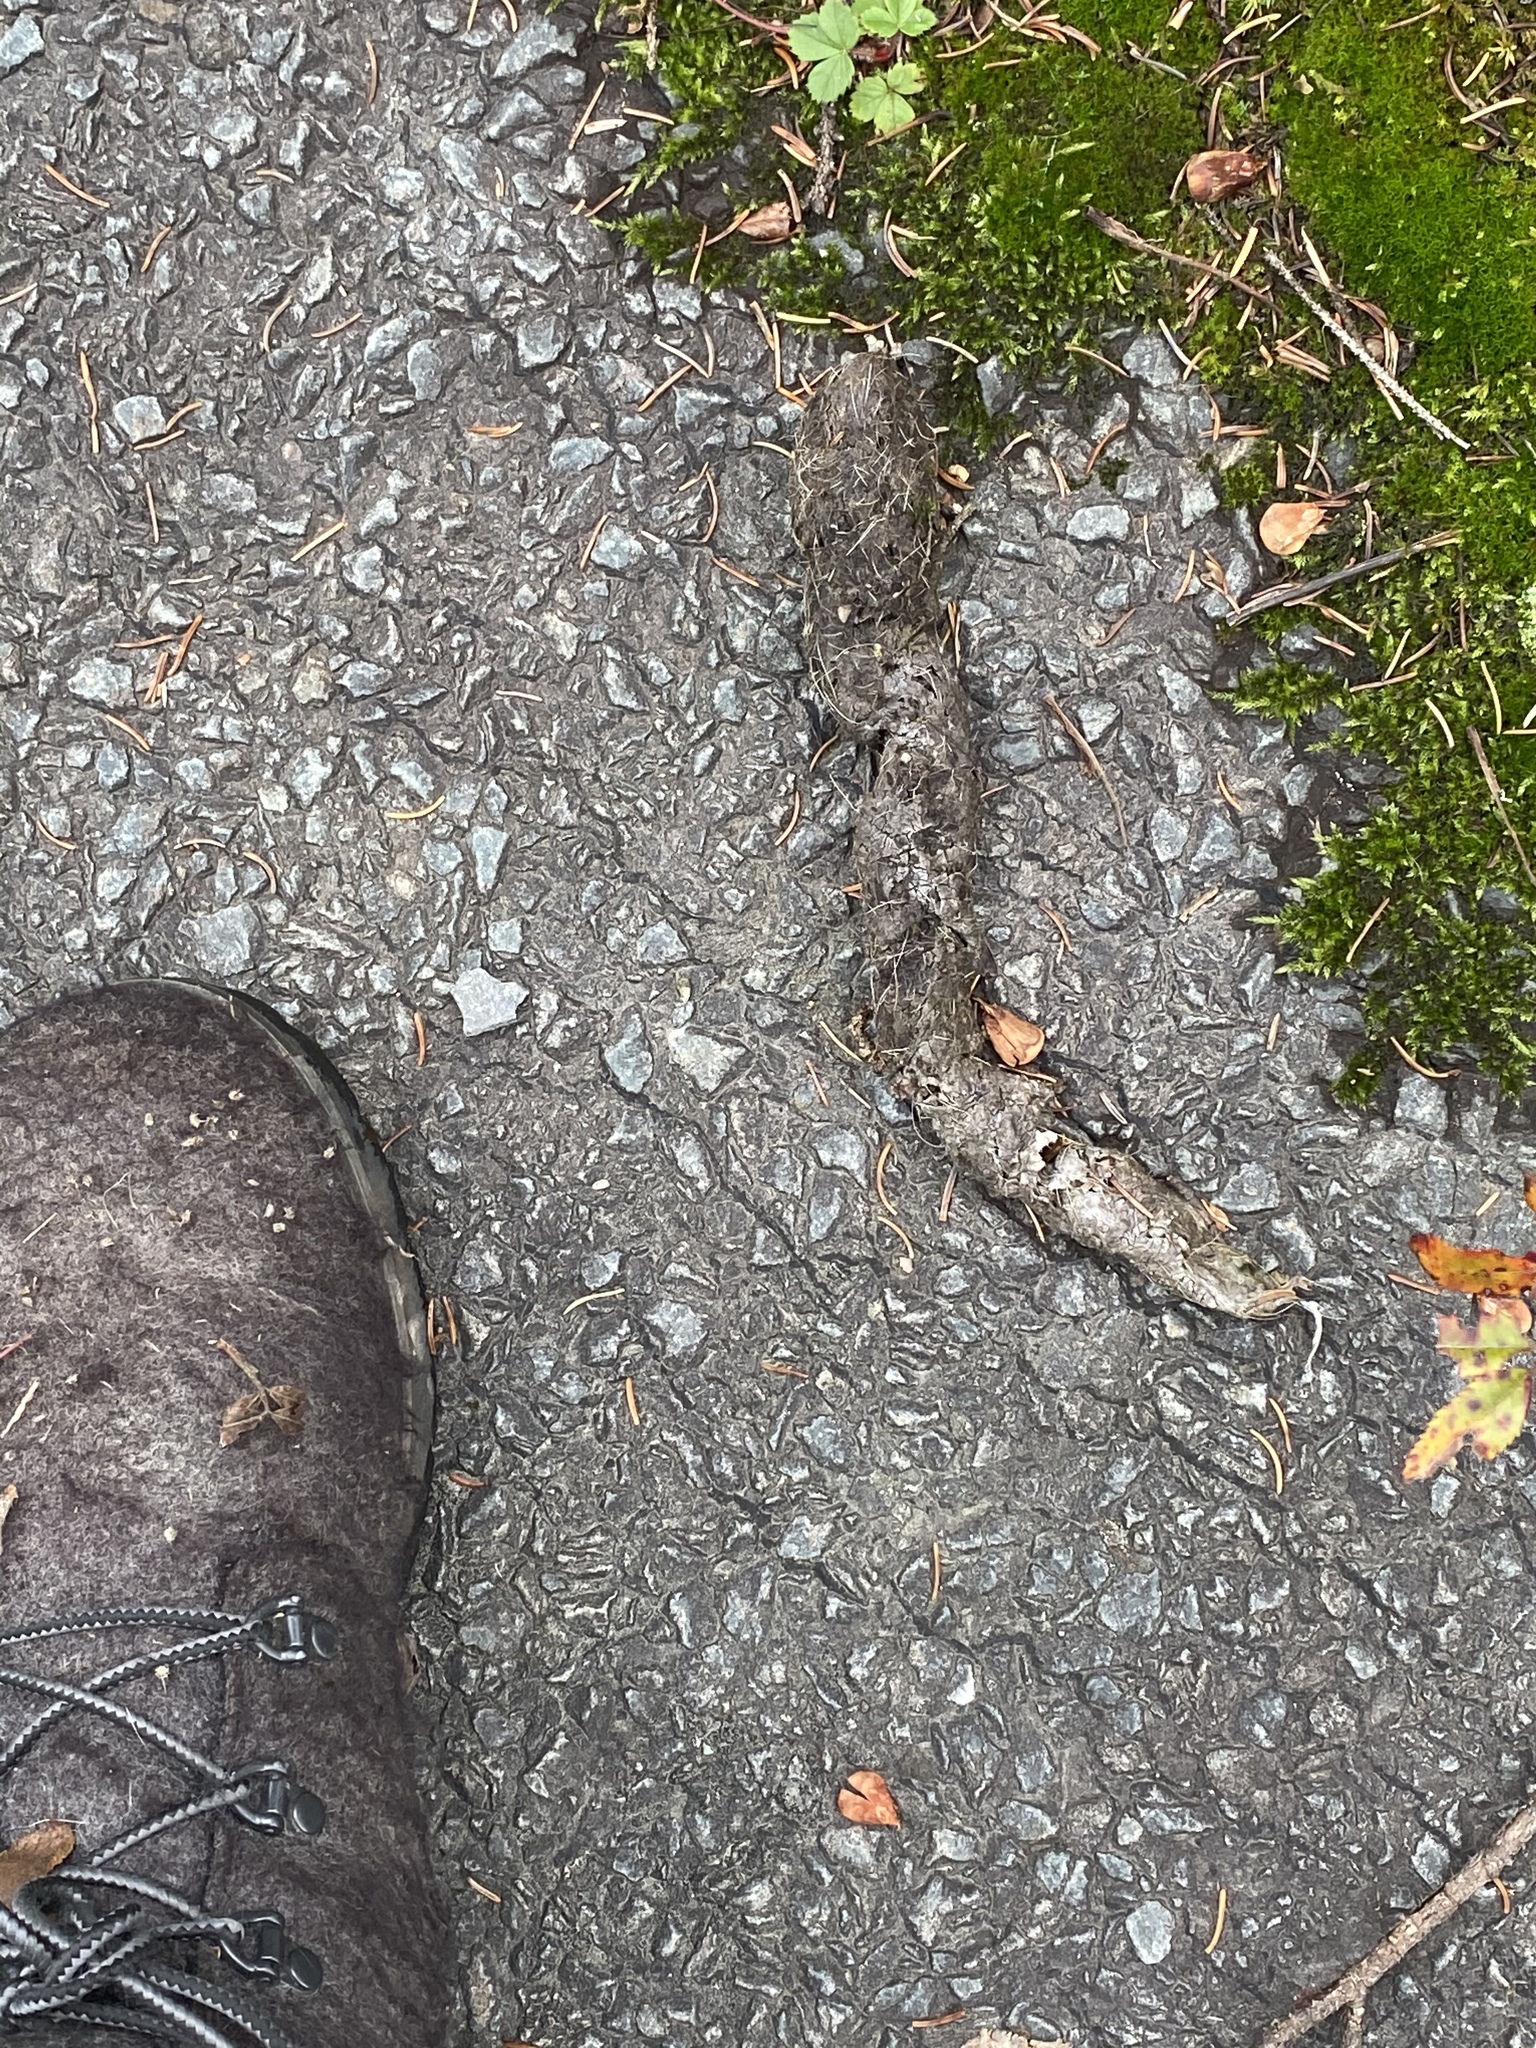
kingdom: Animalia
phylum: Chordata
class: Mammalia
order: Carnivora
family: Canidae
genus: Canis
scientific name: Canis latrans
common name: Coyote
